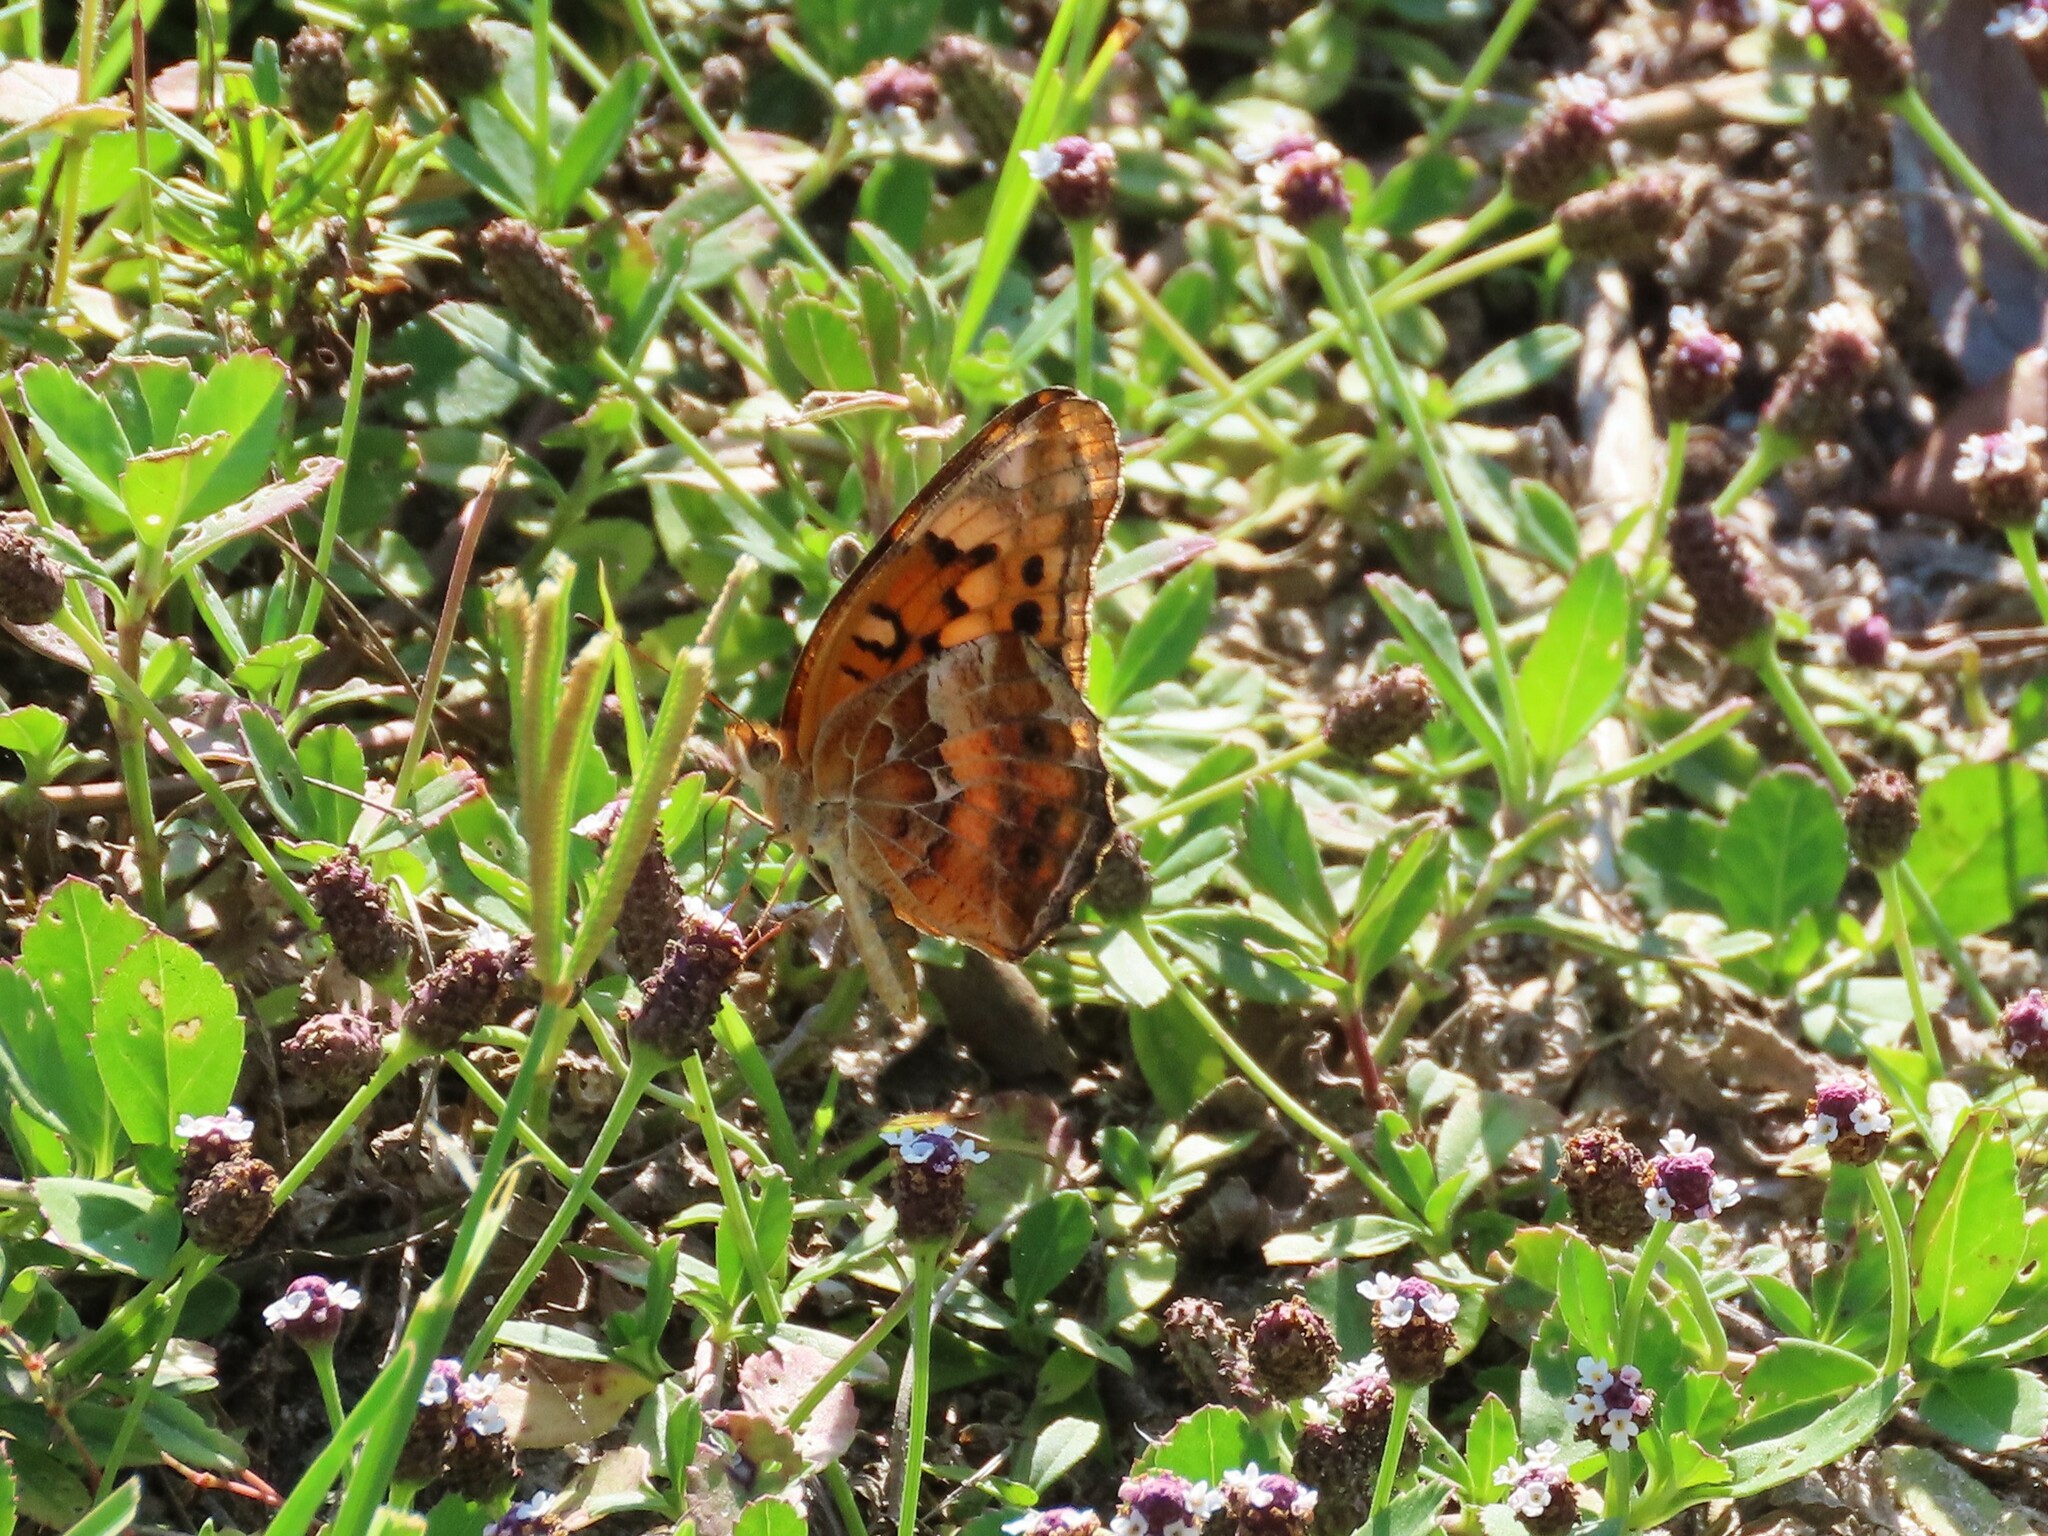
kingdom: Animalia
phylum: Arthropoda
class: Insecta
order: Lepidoptera
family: Nymphalidae
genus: Euptoieta
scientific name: Euptoieta claudia
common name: Variegated fritillary
